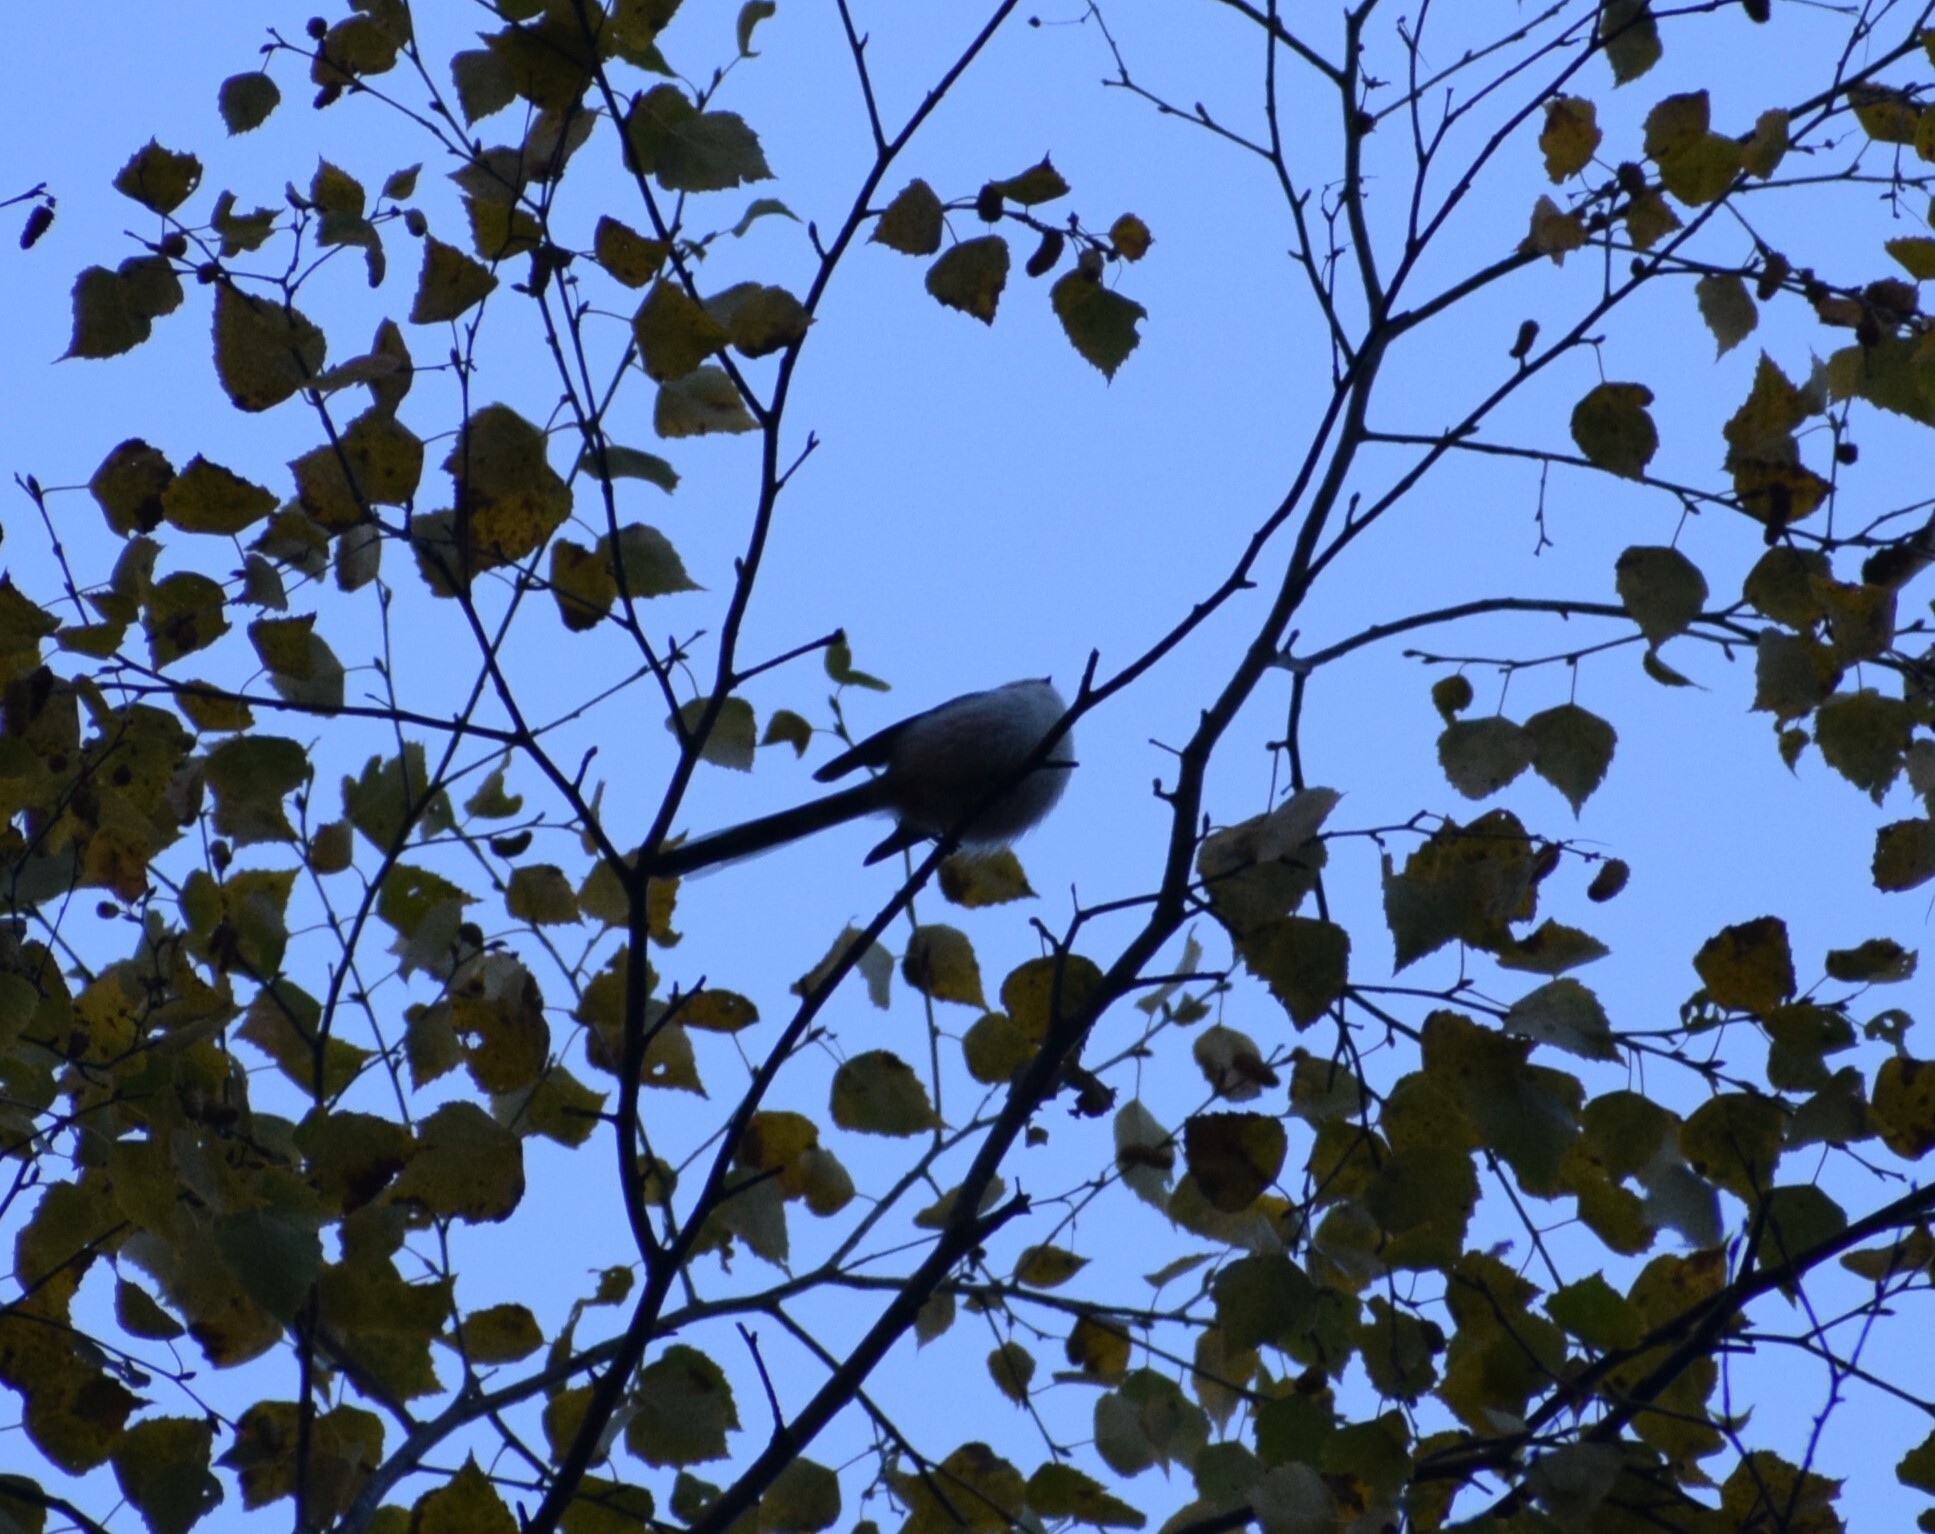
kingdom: Animalia
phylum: Chordata
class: Aves
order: Passeriformes
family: Aegithalidae
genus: Aegithalos
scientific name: Aegithalos caudatus
